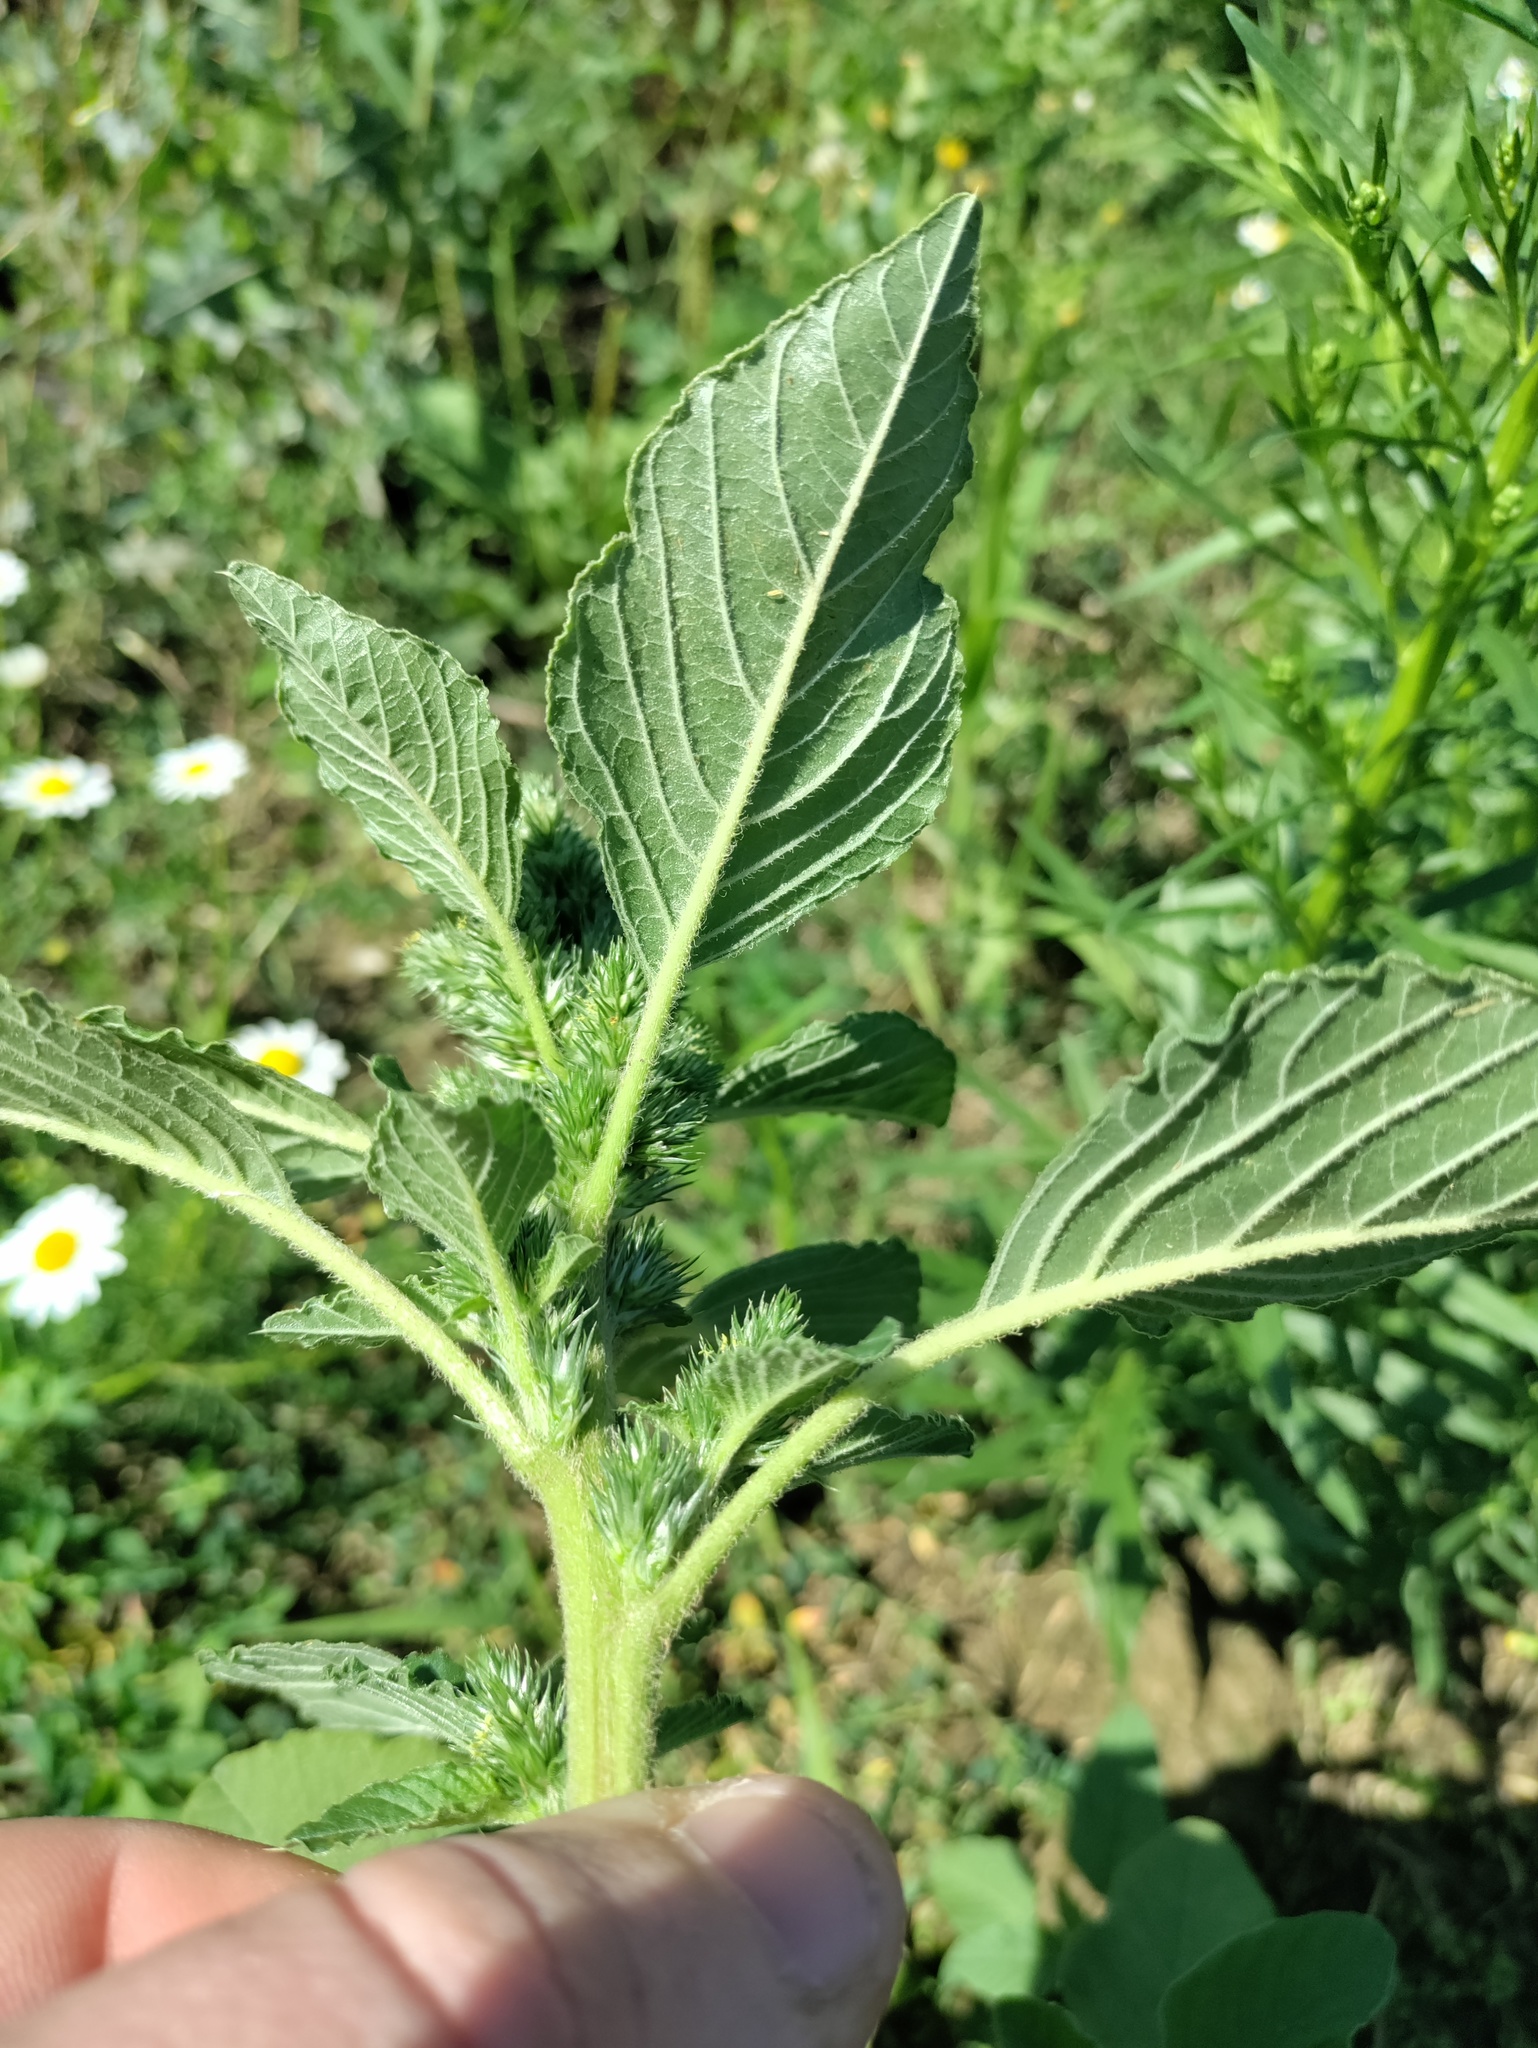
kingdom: Plantae
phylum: Tracheophyta
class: Magnoliopsida
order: Caryophyllales
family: Amaranthaceae
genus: Amaranthus
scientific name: Amaranthus retroflexus
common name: Redroot amaranth
